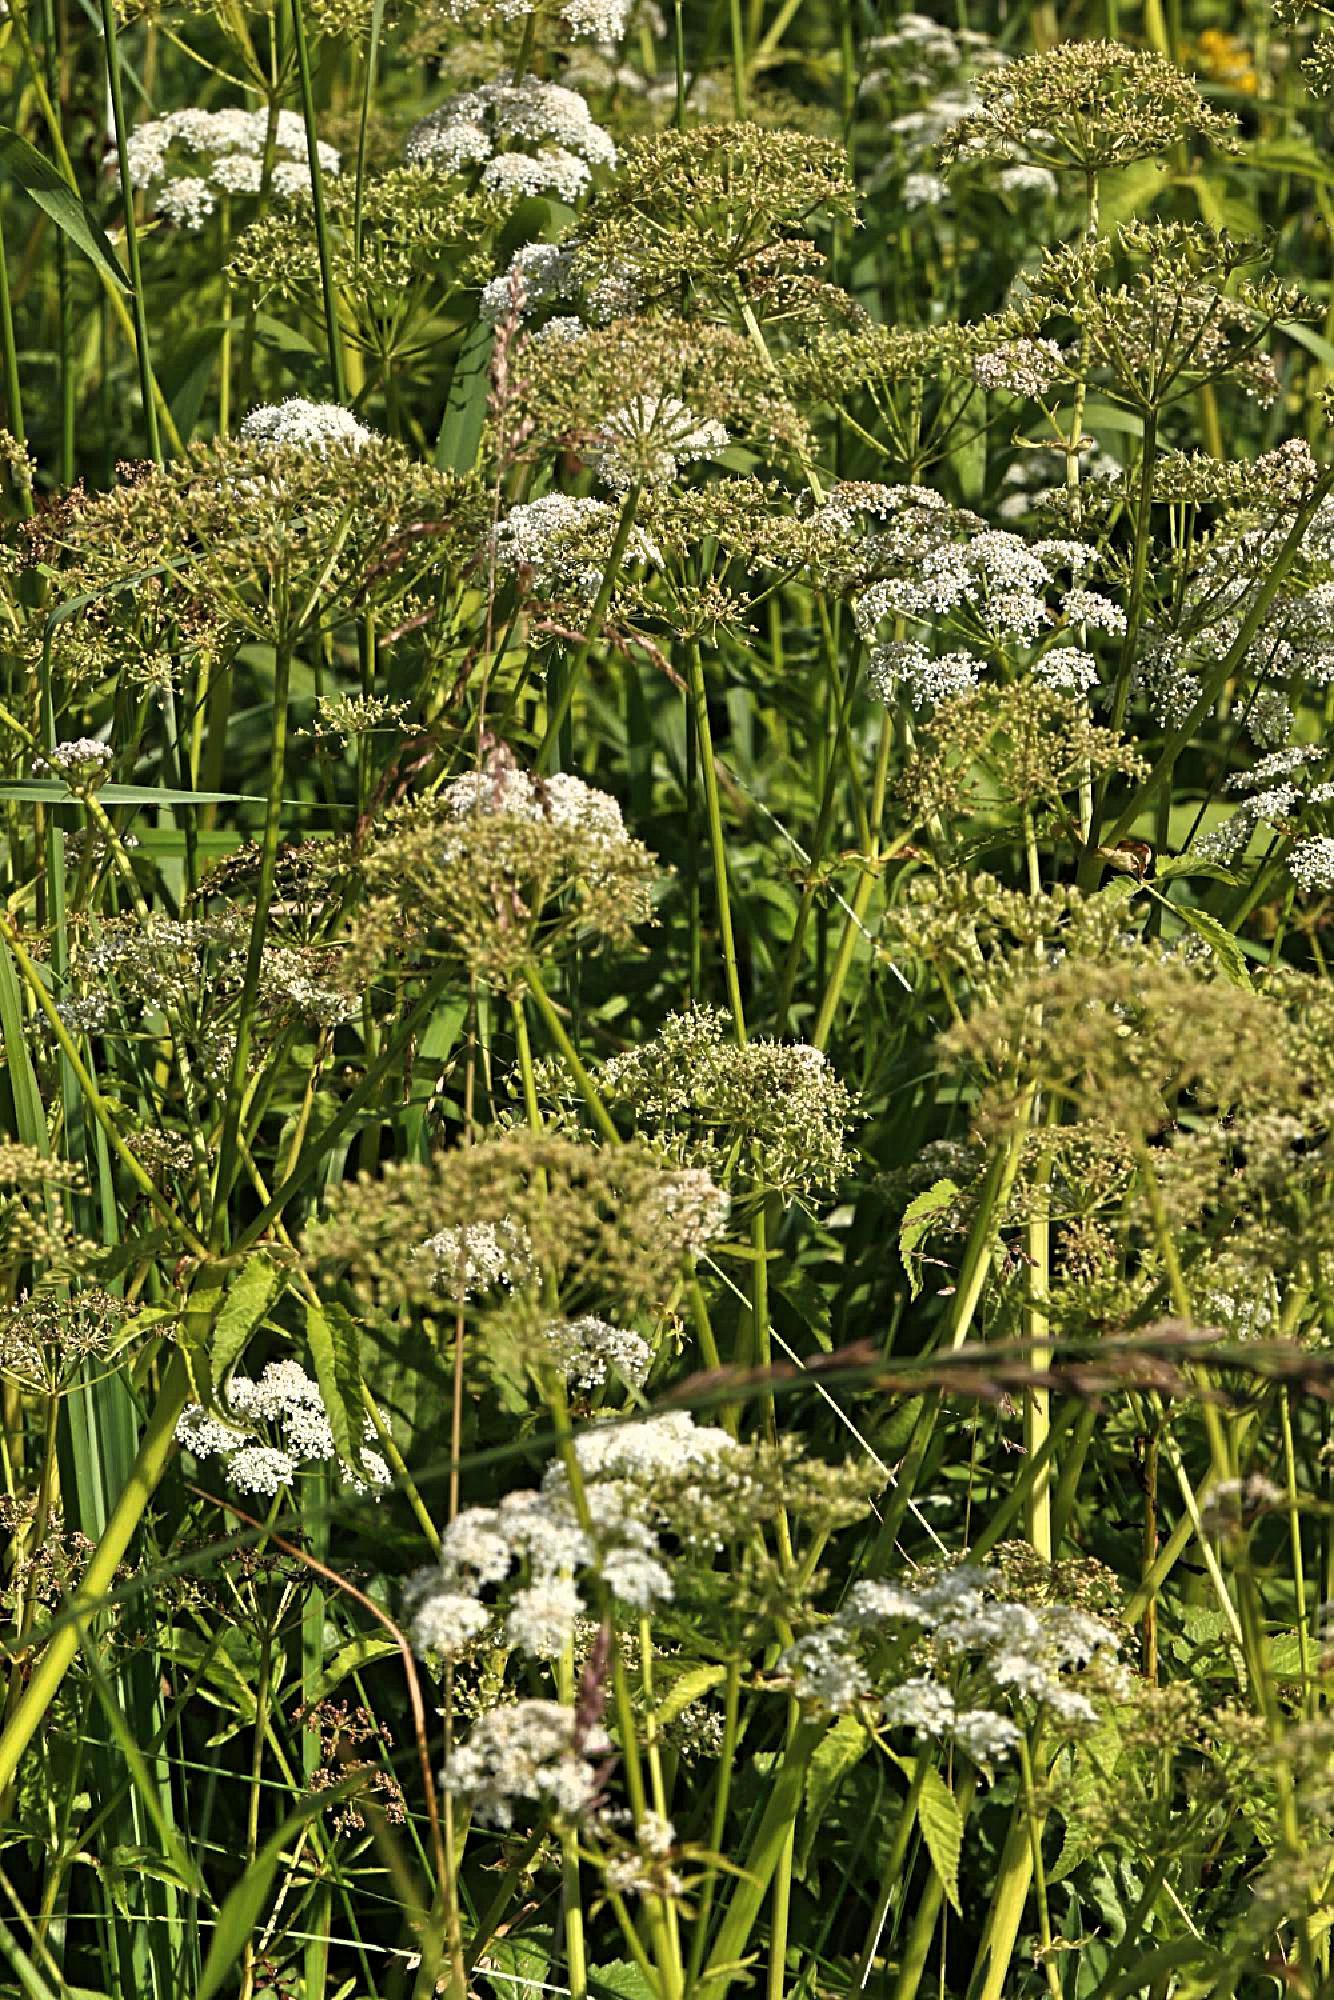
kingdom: Plantae
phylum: Tracheophyta
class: Magnoliopsida
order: Apiales
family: Apiaceae
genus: Aegopodium
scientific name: Aegopodium podagraria
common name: Ground-elder
